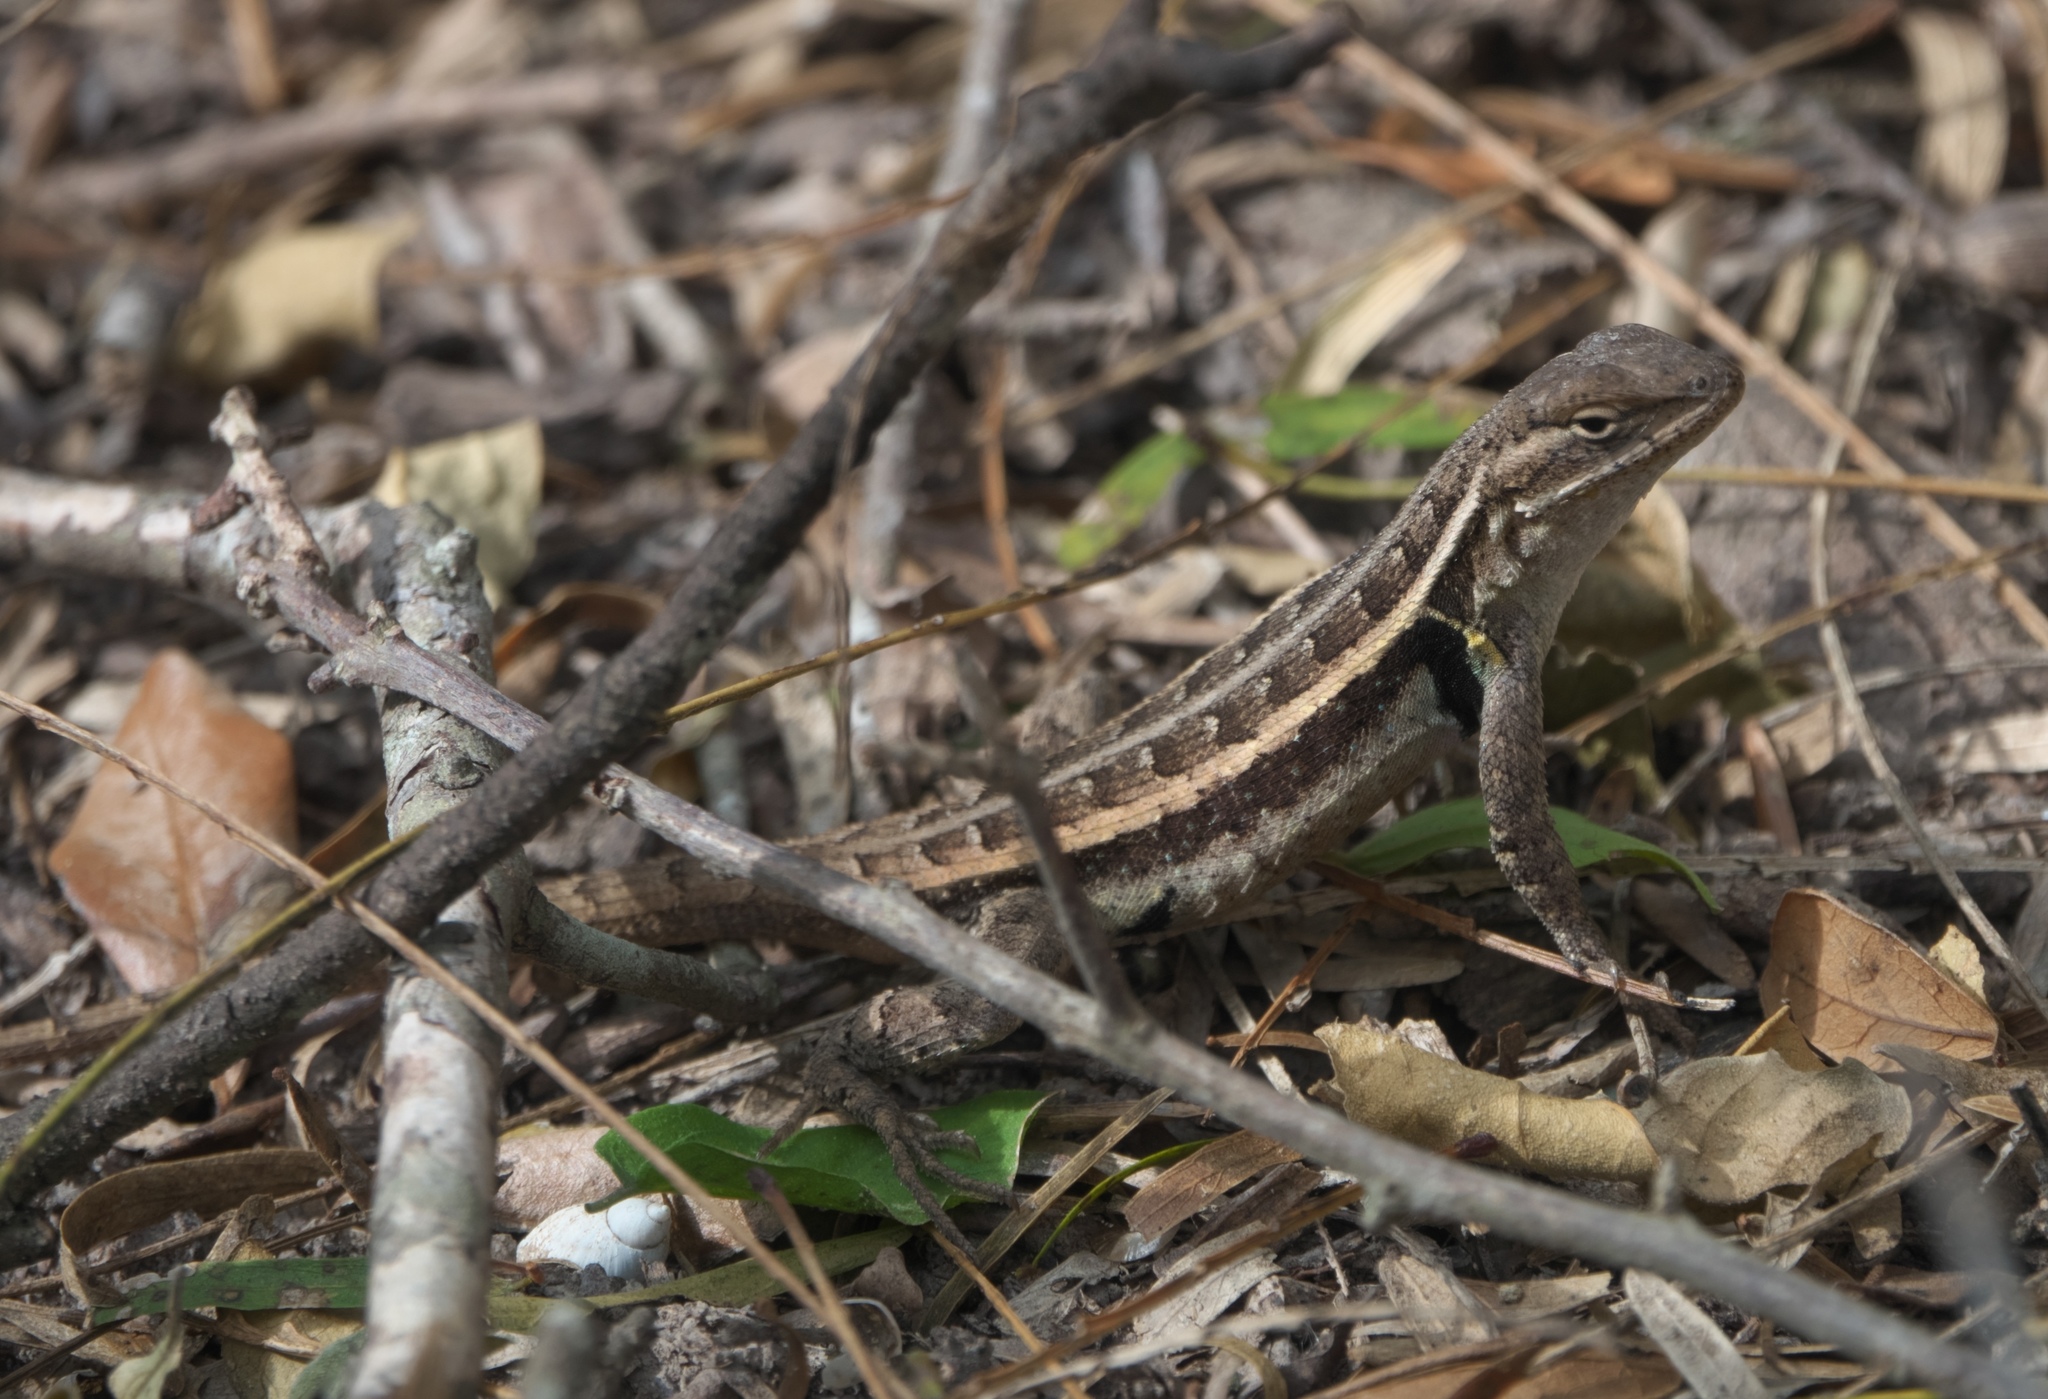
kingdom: Animalia
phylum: Chordata
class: Squamata
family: Phrynosomatidae
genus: Sceloporus
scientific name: Sceloporus variabilis
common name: Rosebelly lizard
